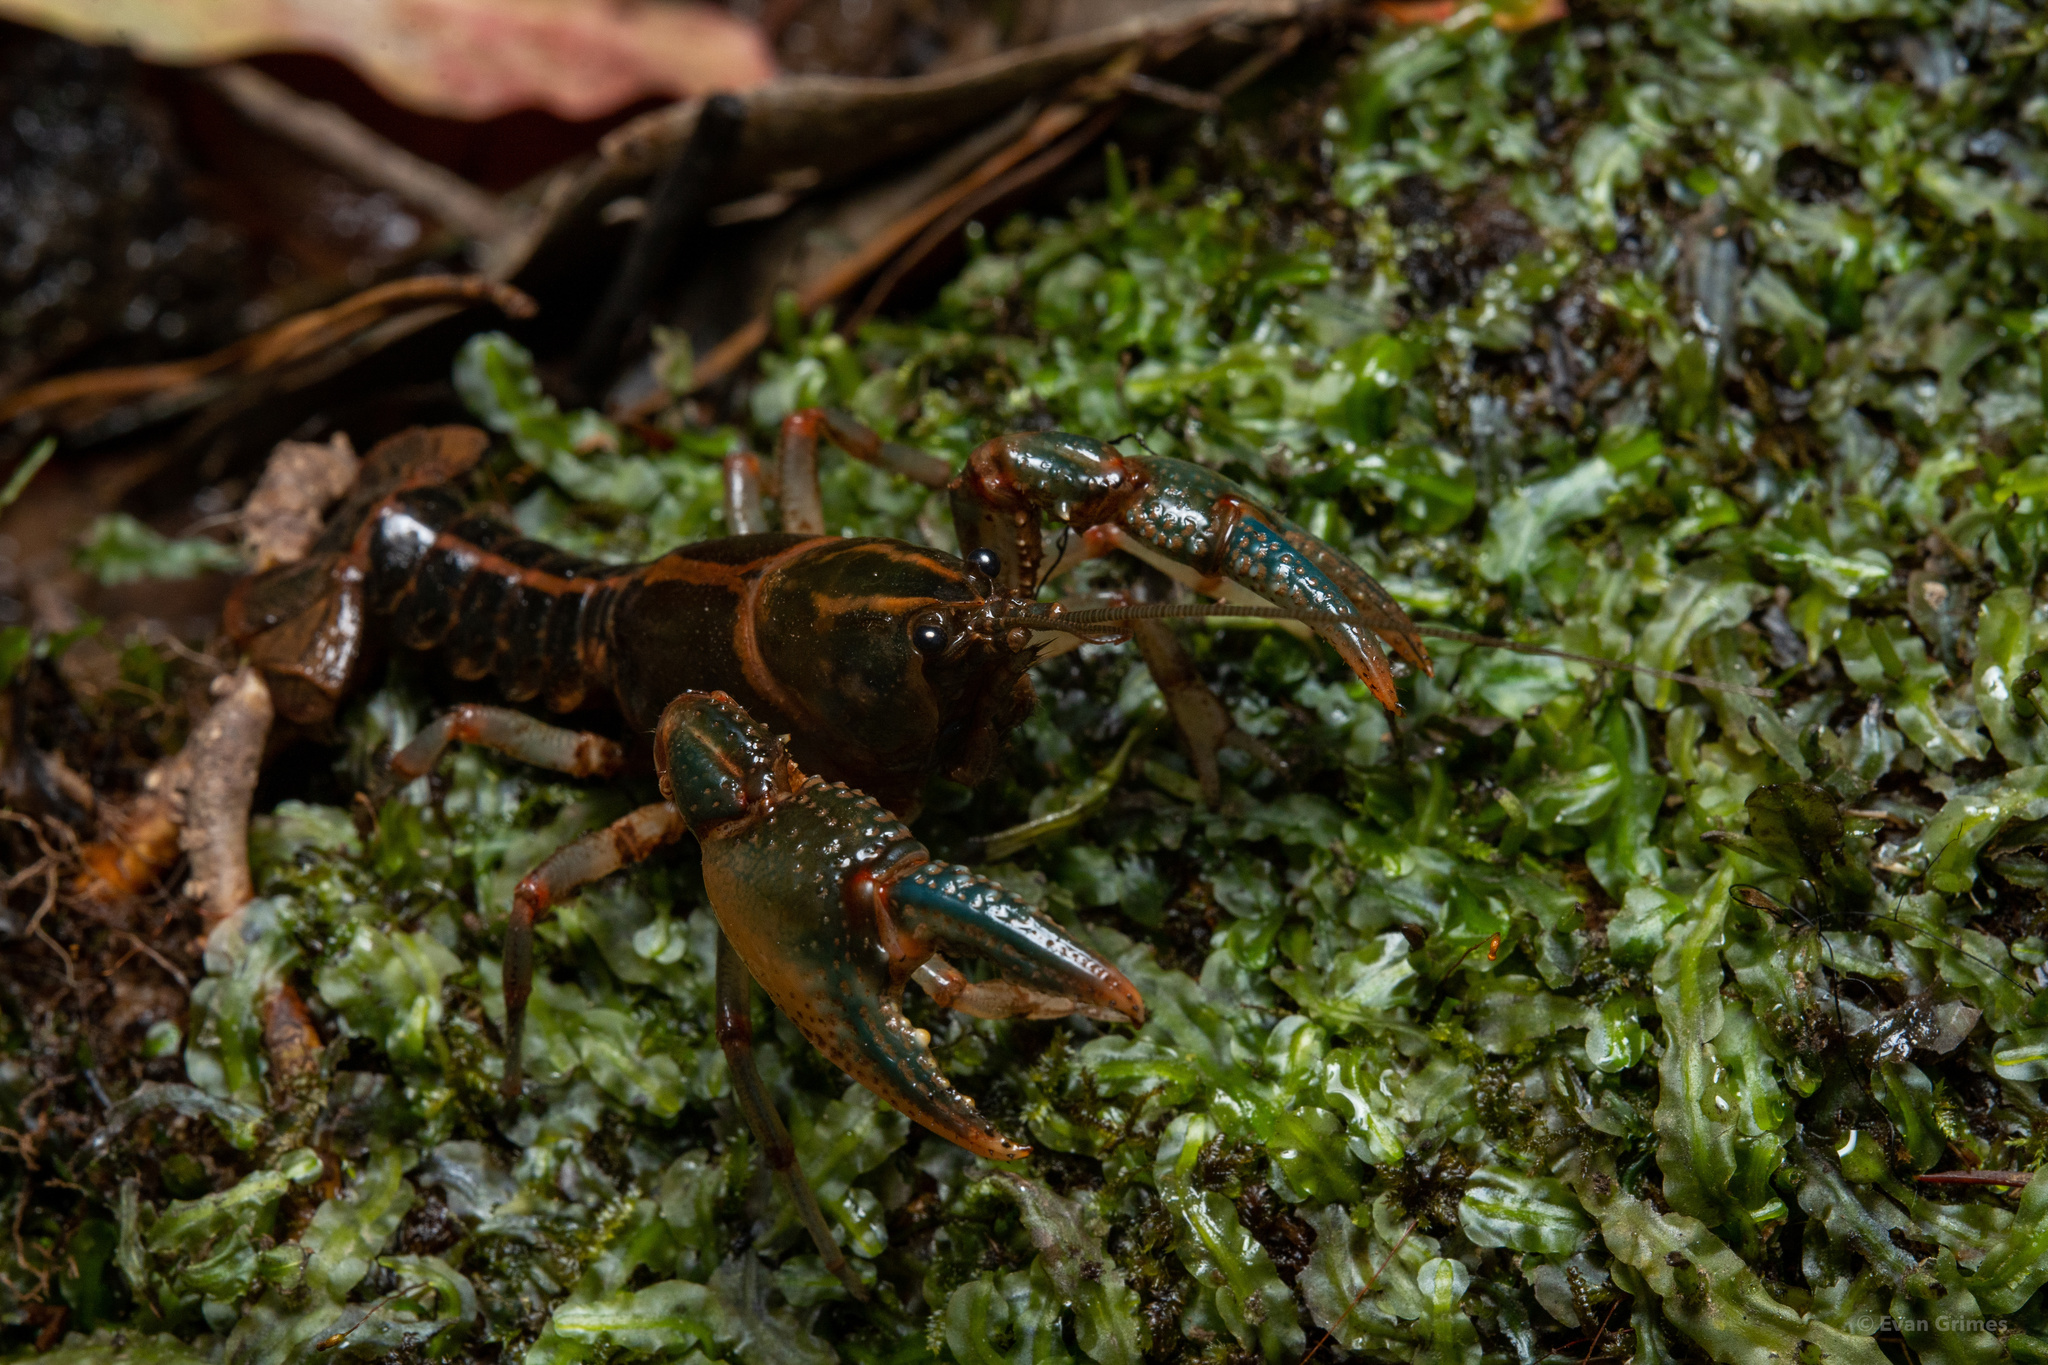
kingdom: Animalia
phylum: Arthropoda
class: Malacostraca
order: Decapoda
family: Cambaridae
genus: Lacunicambarus
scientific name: Lacunicambarus mobilensis
